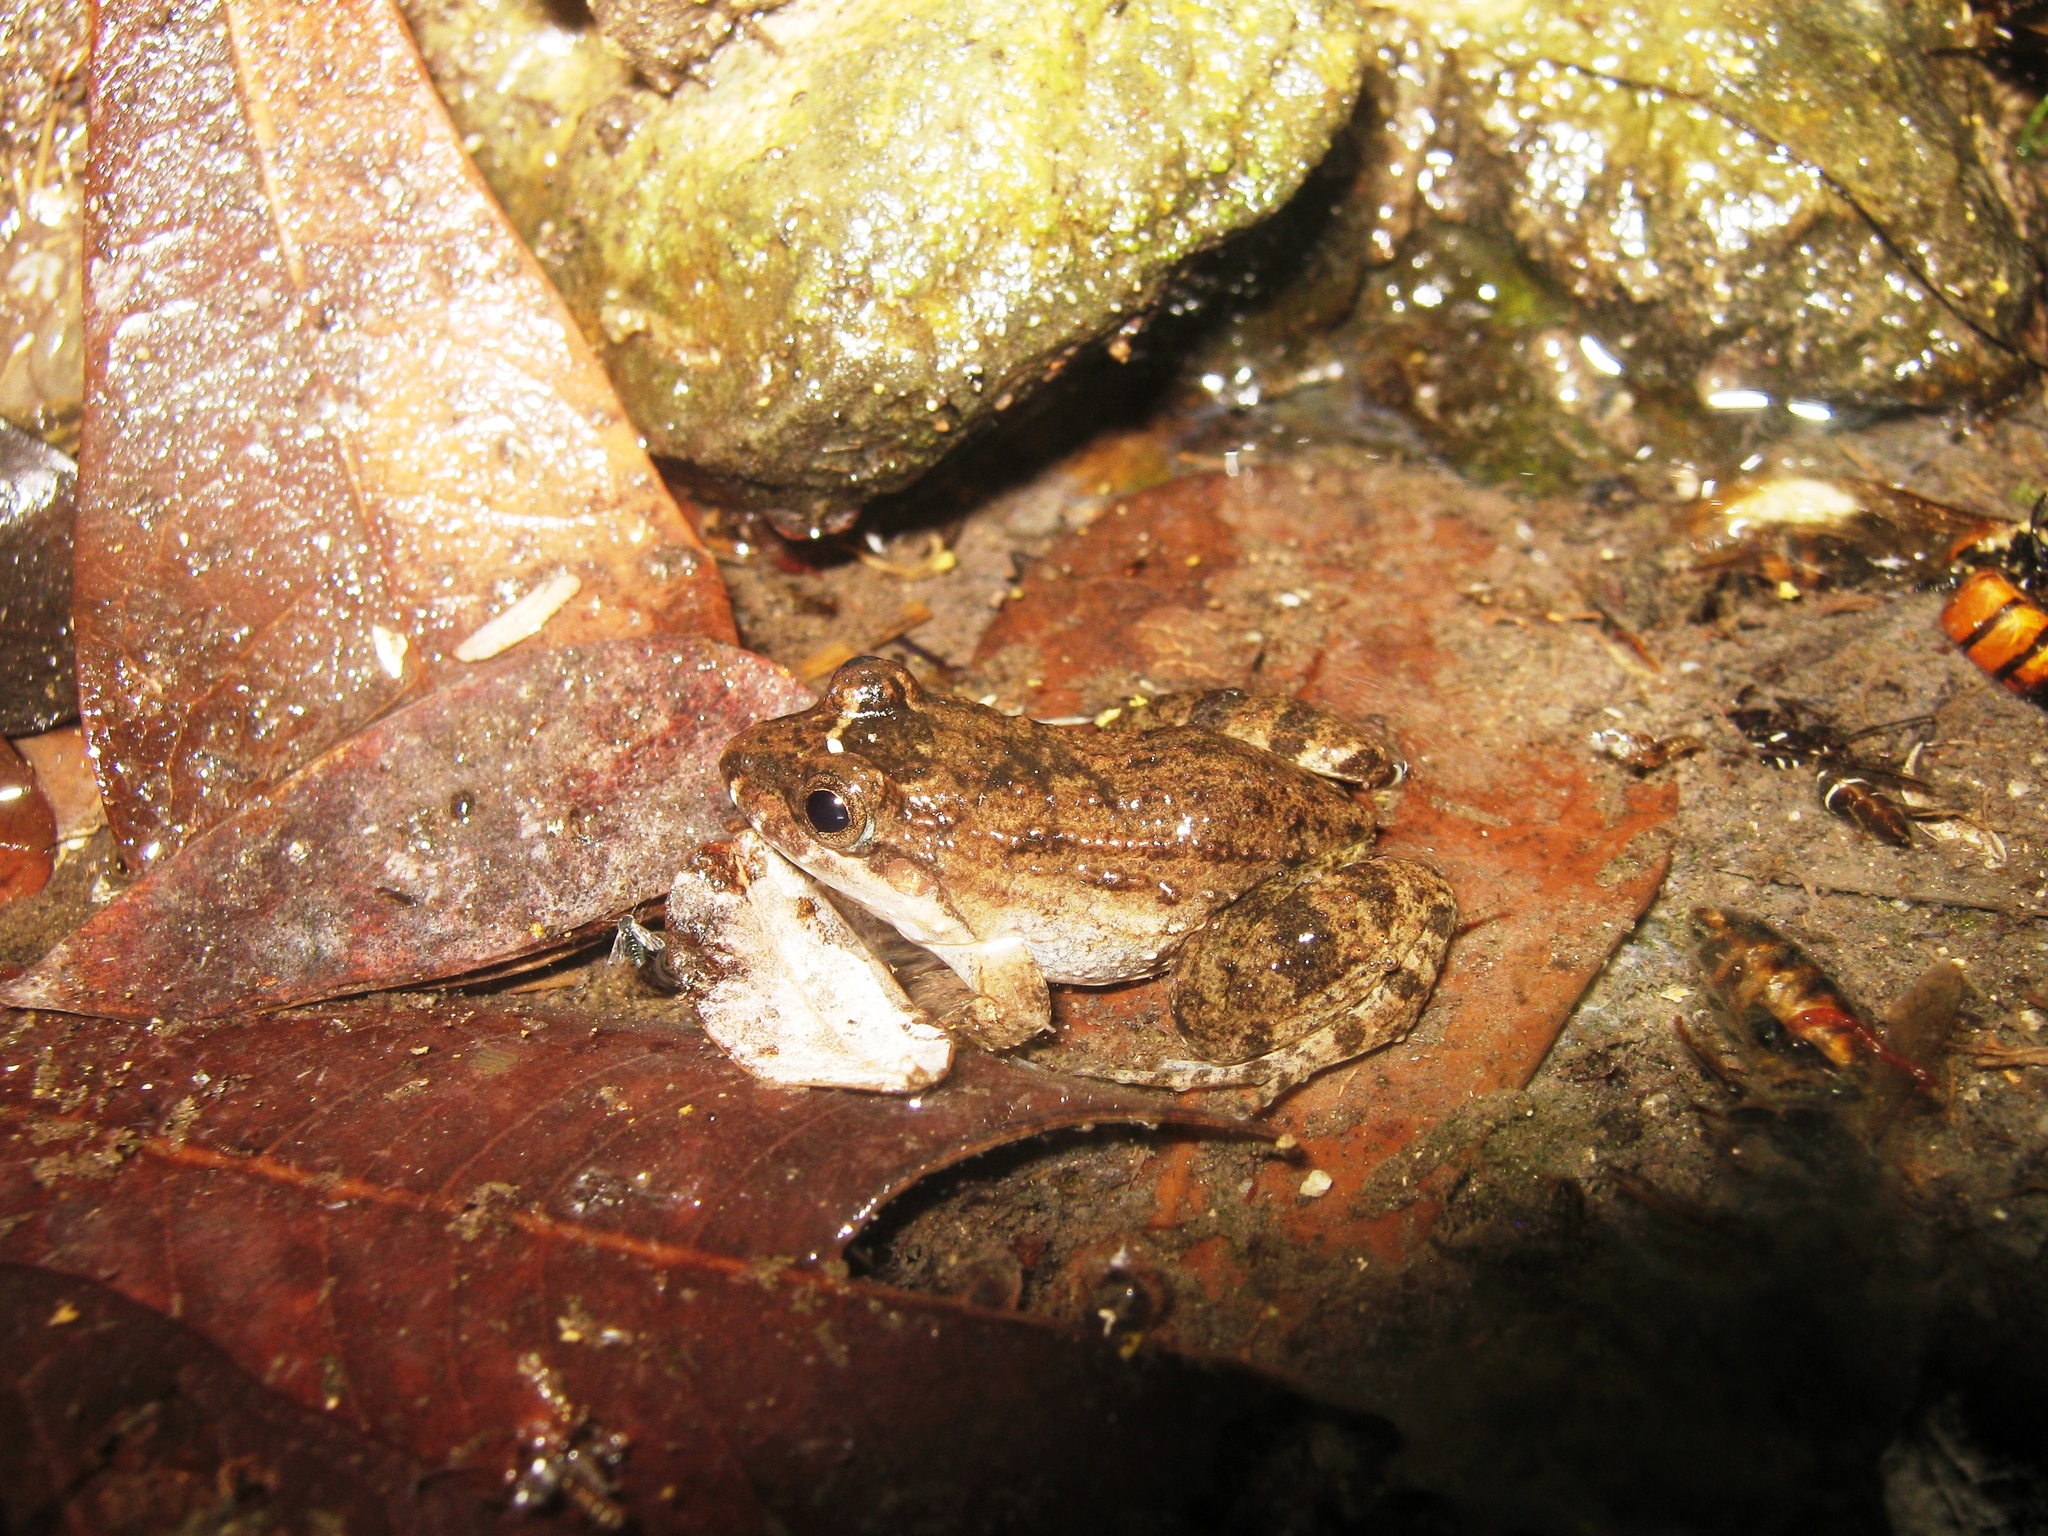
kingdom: Animalia
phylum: Chordata
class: Amphibia
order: Anura
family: Leptodactylidae
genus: Leptodactylus
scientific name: Leptodactylus melanonotus
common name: Fringe-toed foamfrog
